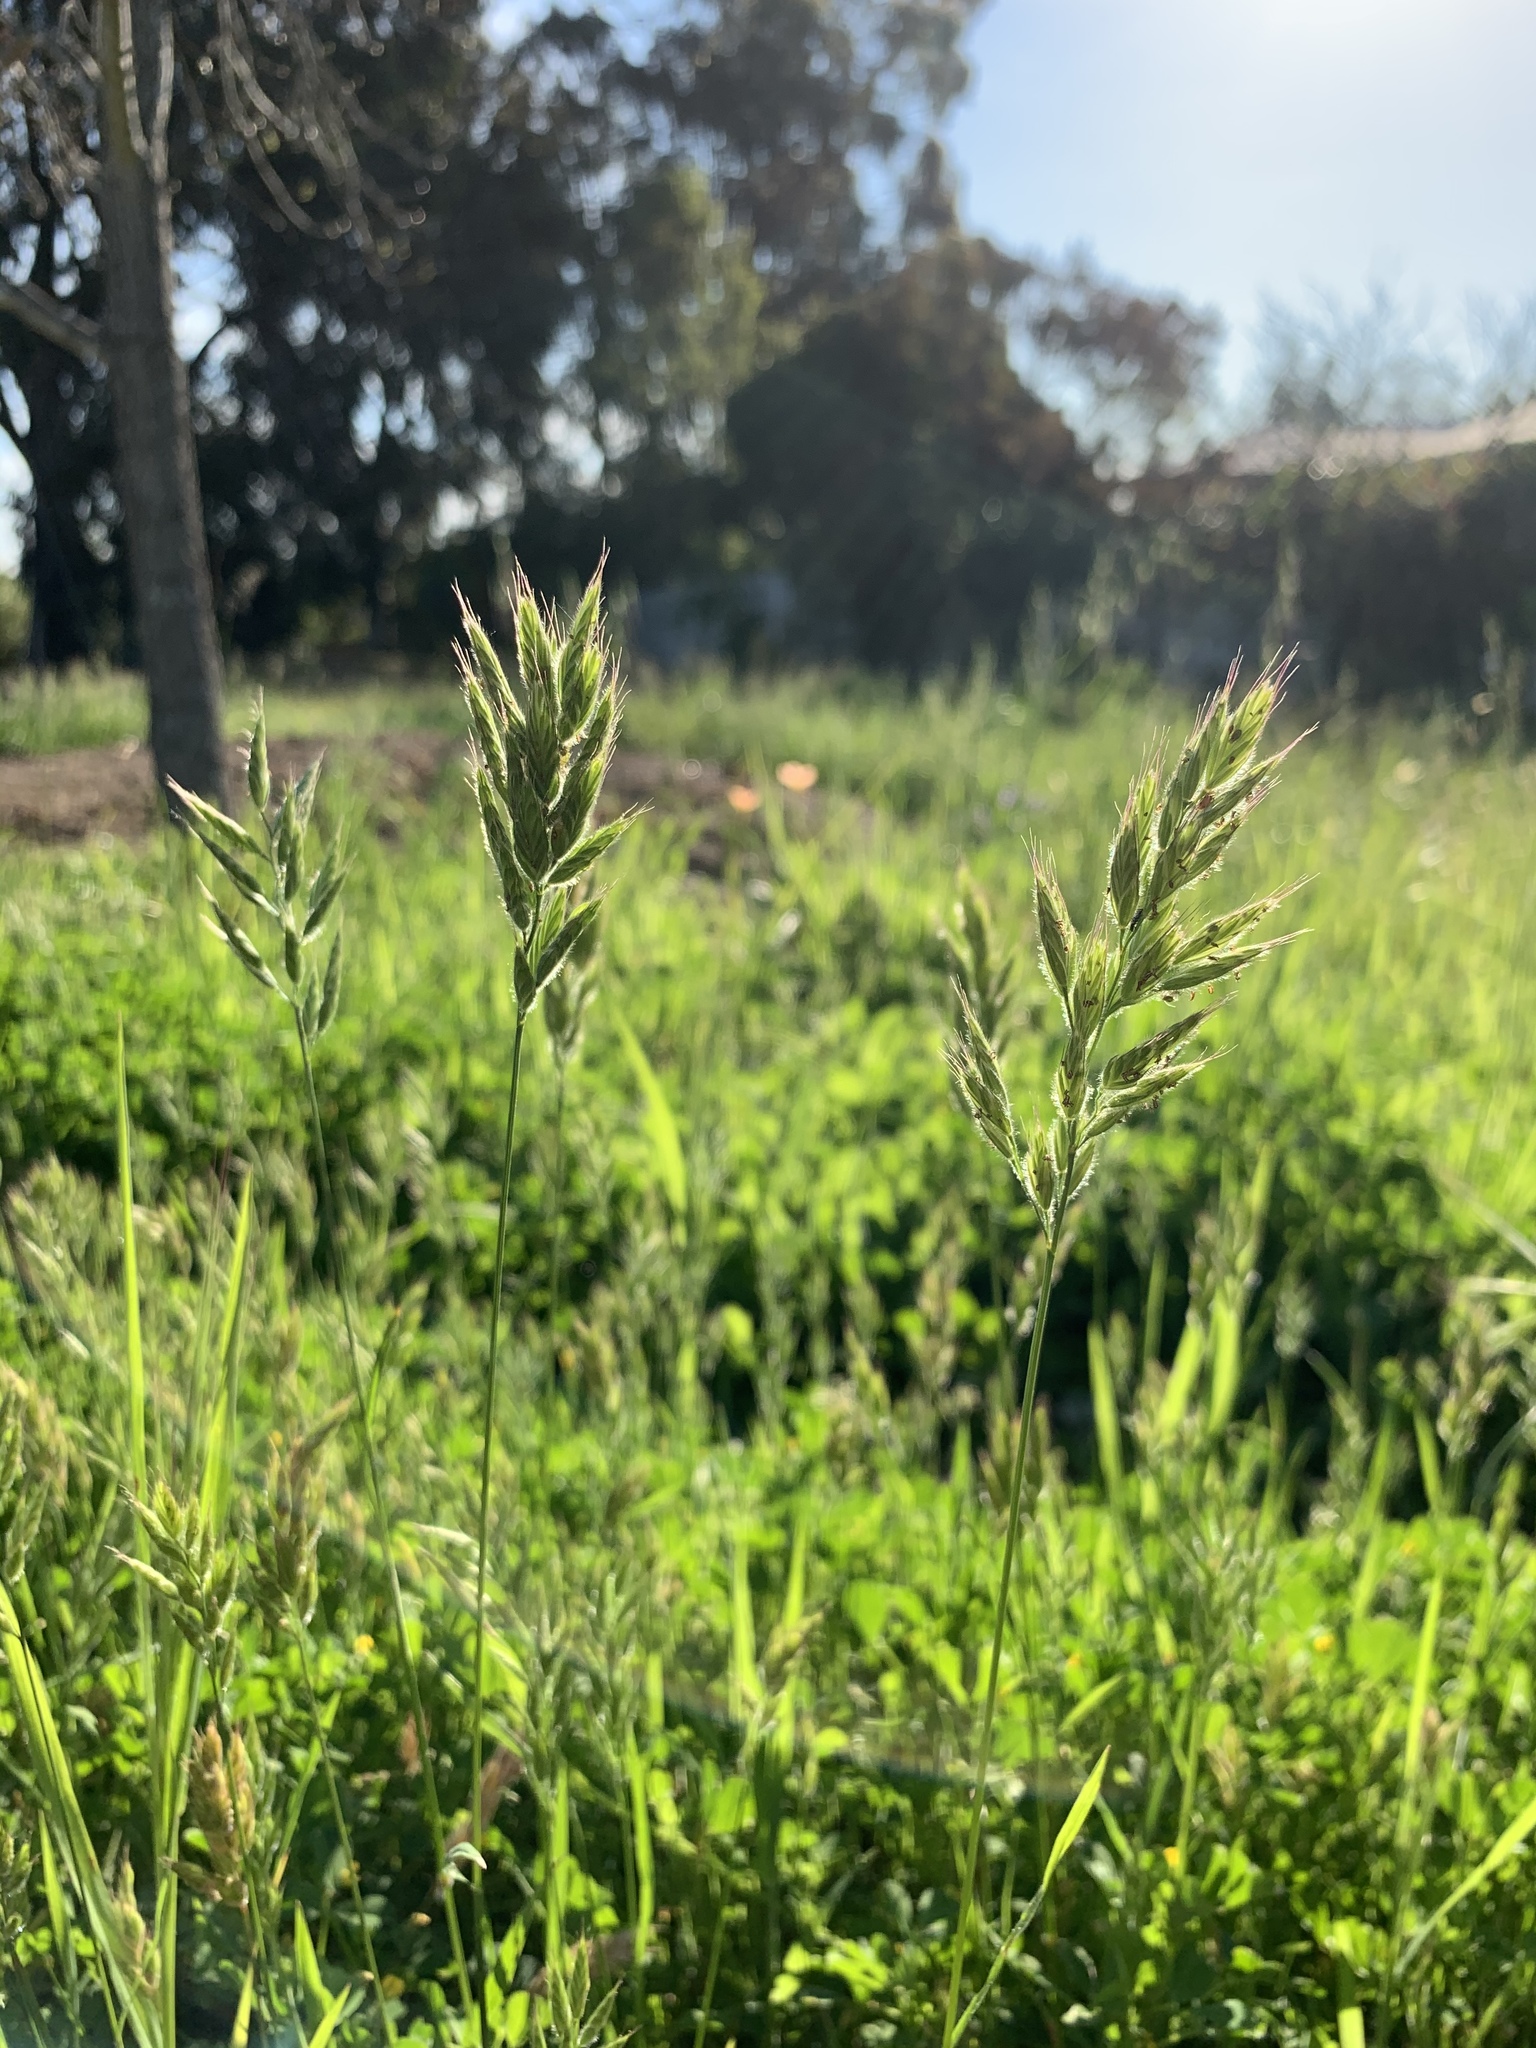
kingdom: Plantae
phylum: Tracheophyta
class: Liliopsida
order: Poales
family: Poaceae
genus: Bromus
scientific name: Bromus hordeaceus
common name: Soft brome
